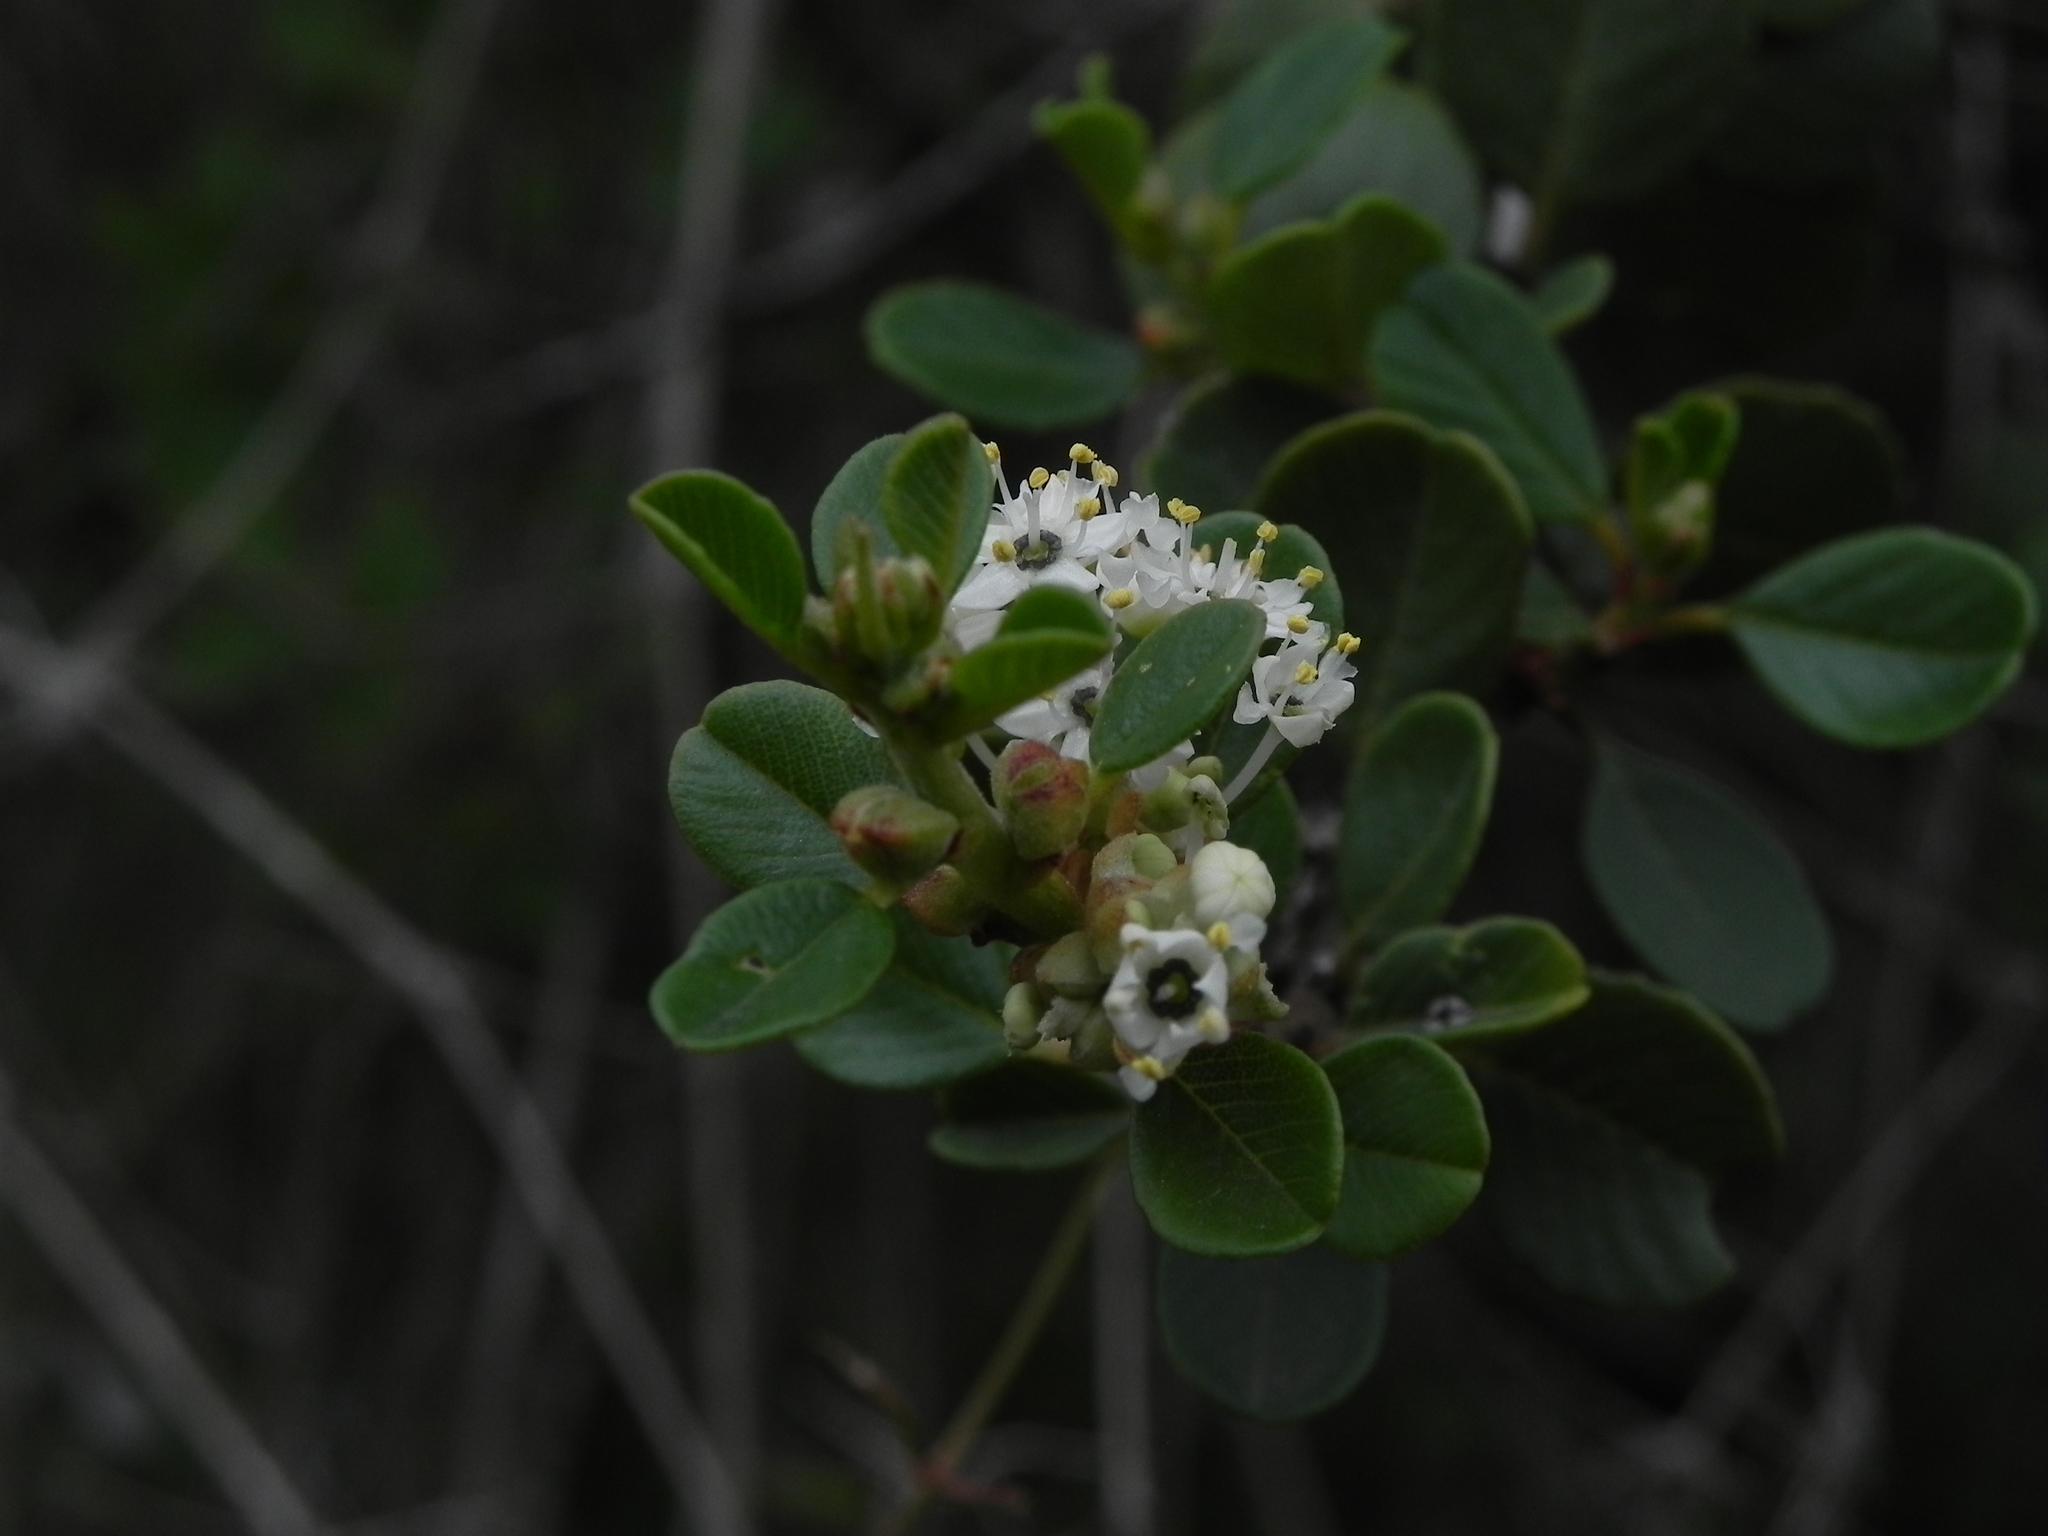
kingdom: Plantae
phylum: Tracheophyta
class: Magnoliopsida
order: Rosales
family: Rhamnaceae
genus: Ceanothus
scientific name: Ceanothus verrucosus
